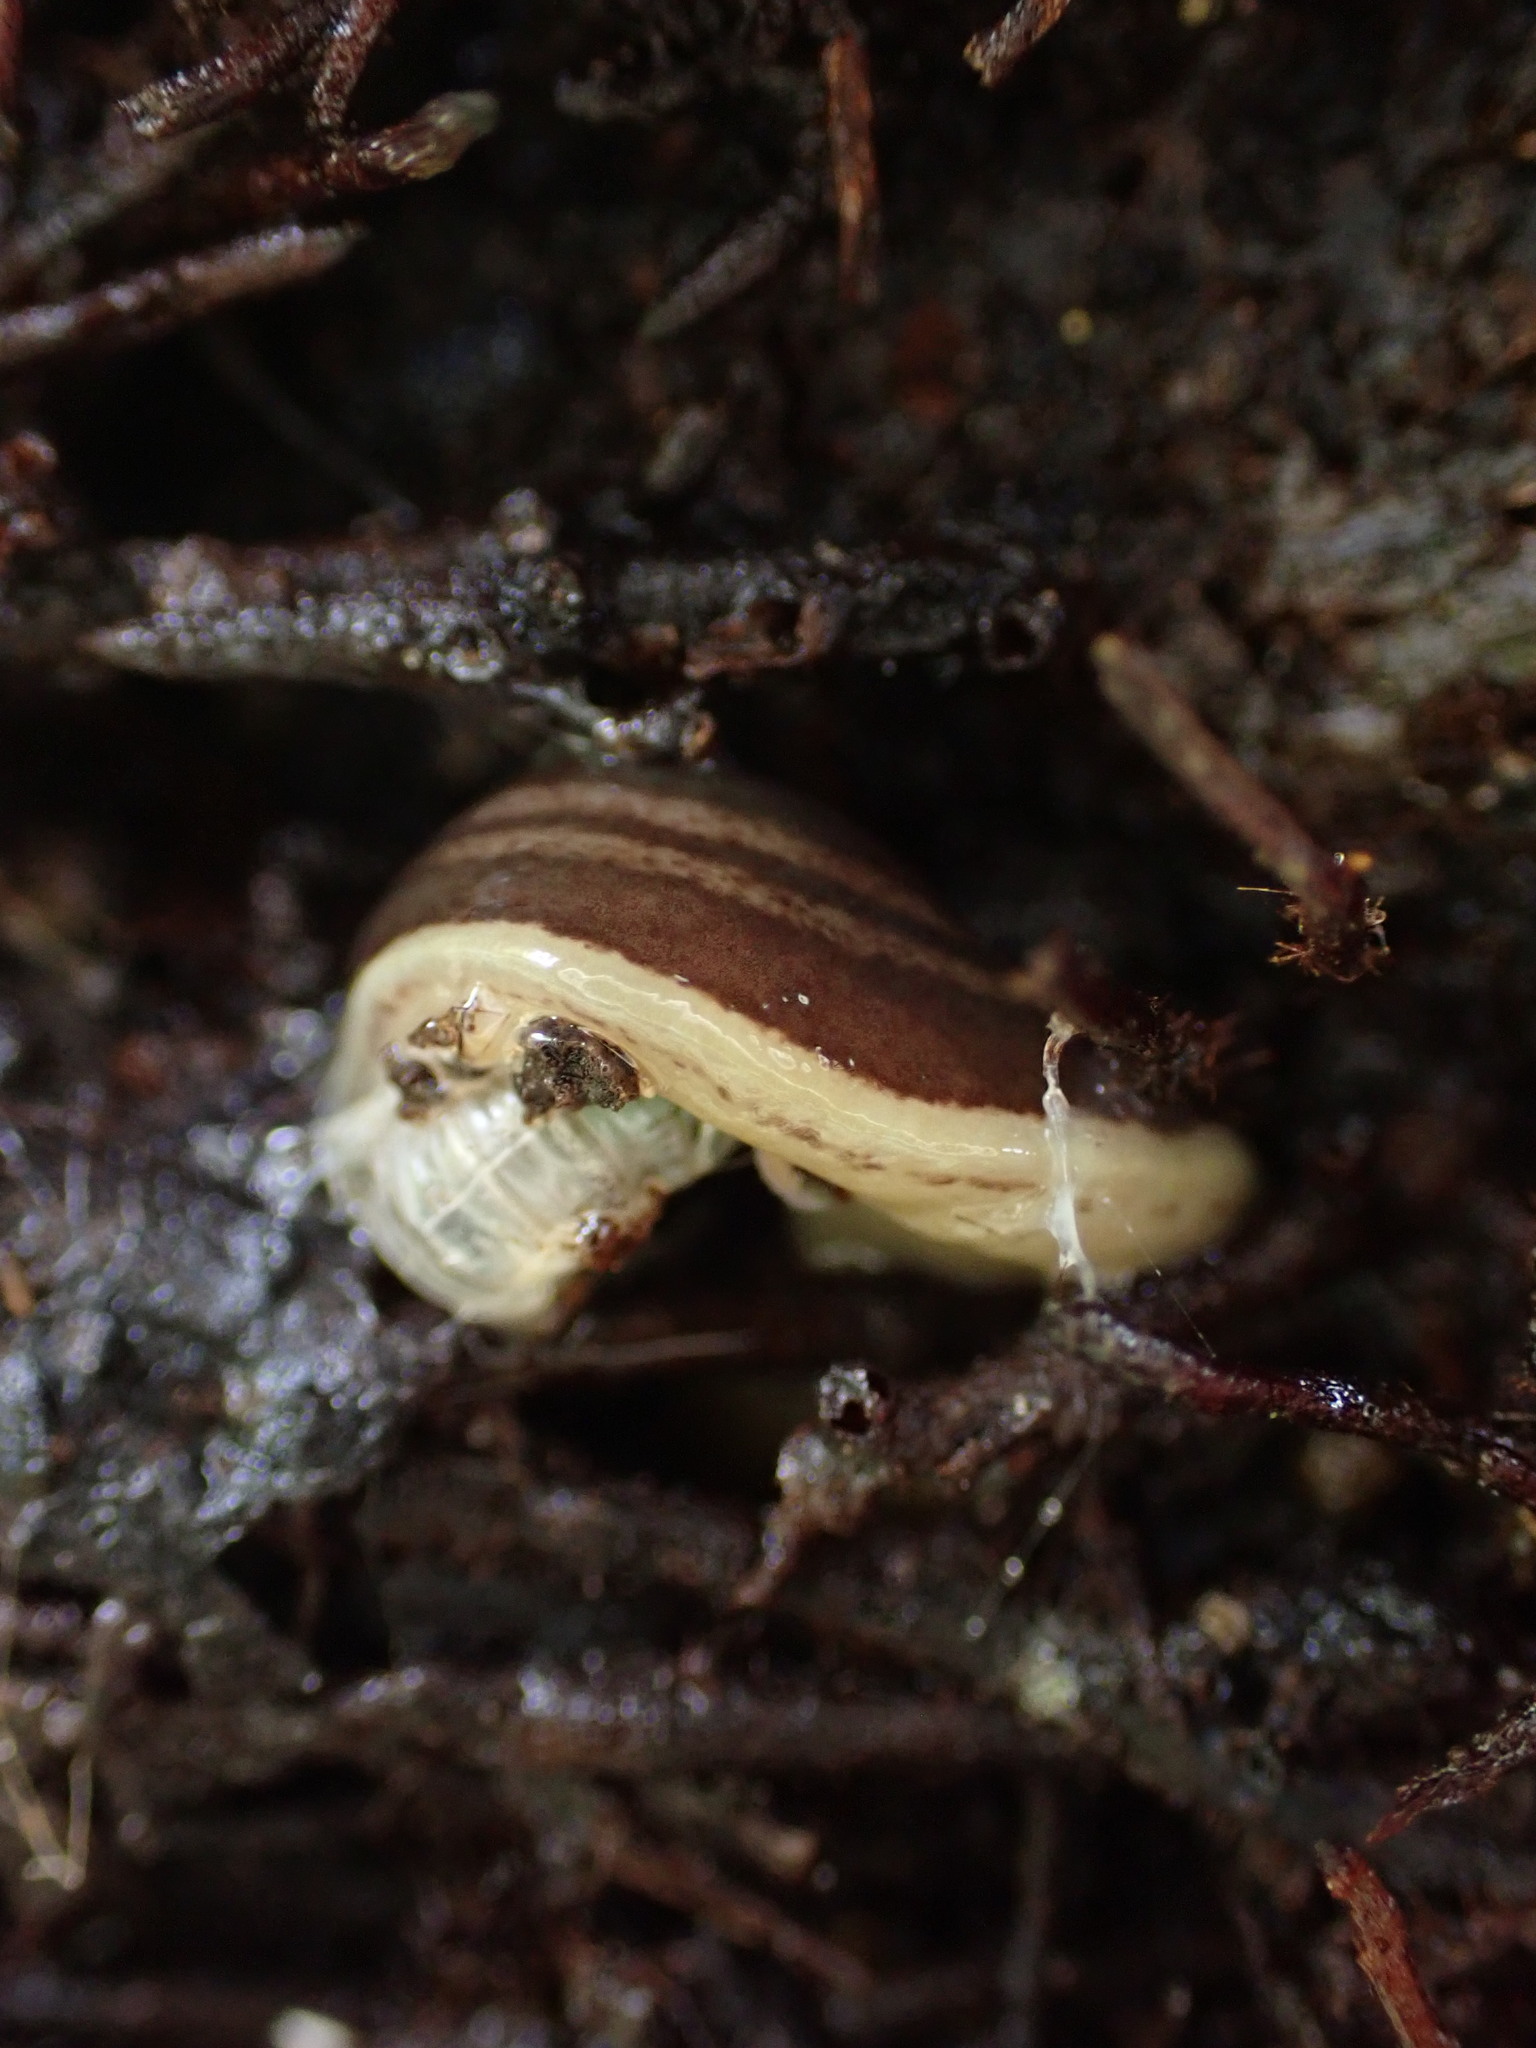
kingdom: Animalia
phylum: Platyhelminthes
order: Tricladida
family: Geoplanidae
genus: Australopacifica
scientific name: Australopacifica
